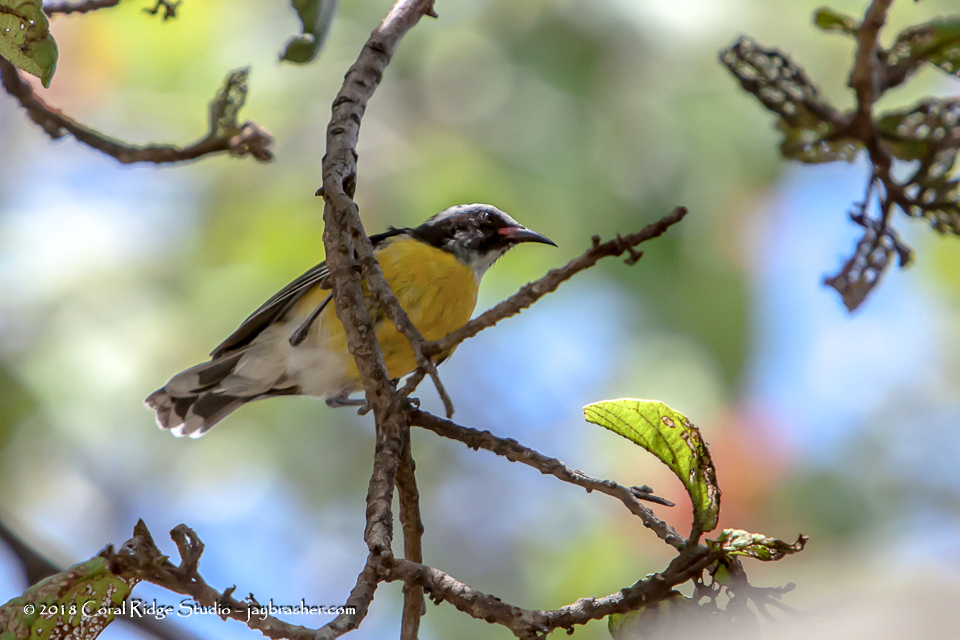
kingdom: Animalia
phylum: Chordata
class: Aves
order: Passeriformes
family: Thraupidae
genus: Coereba
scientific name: Coereba flaveola
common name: Bananaquit
